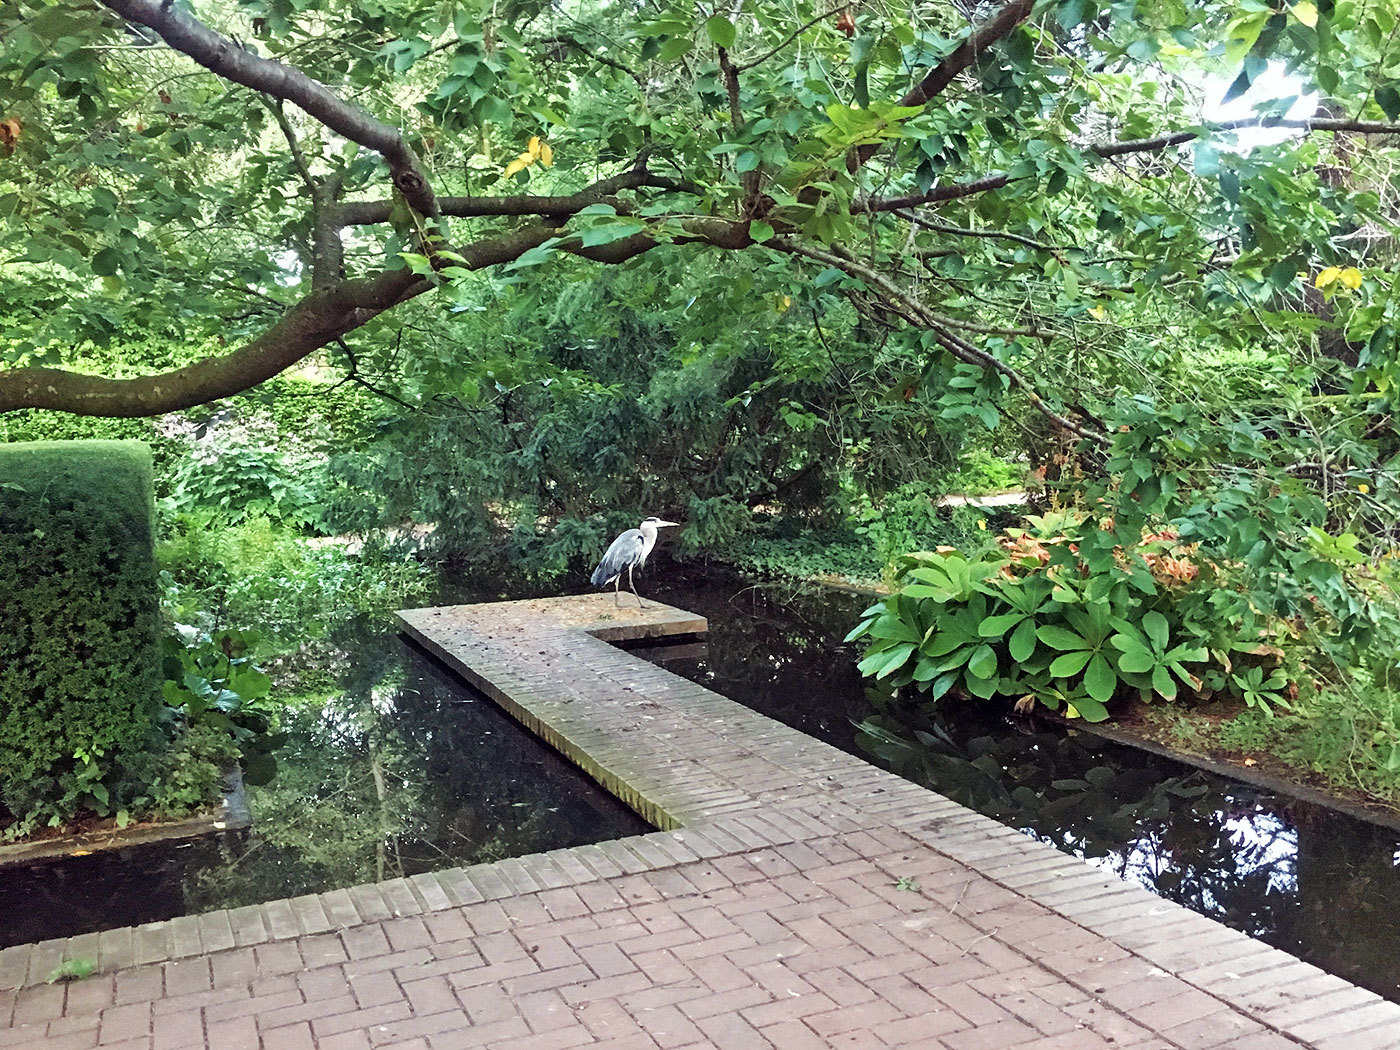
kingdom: Animalia
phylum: Chordata
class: Aves
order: Pelecaniformes
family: Ardeidae
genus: Ardea
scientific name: Ardea cinerea
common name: Grey heron
